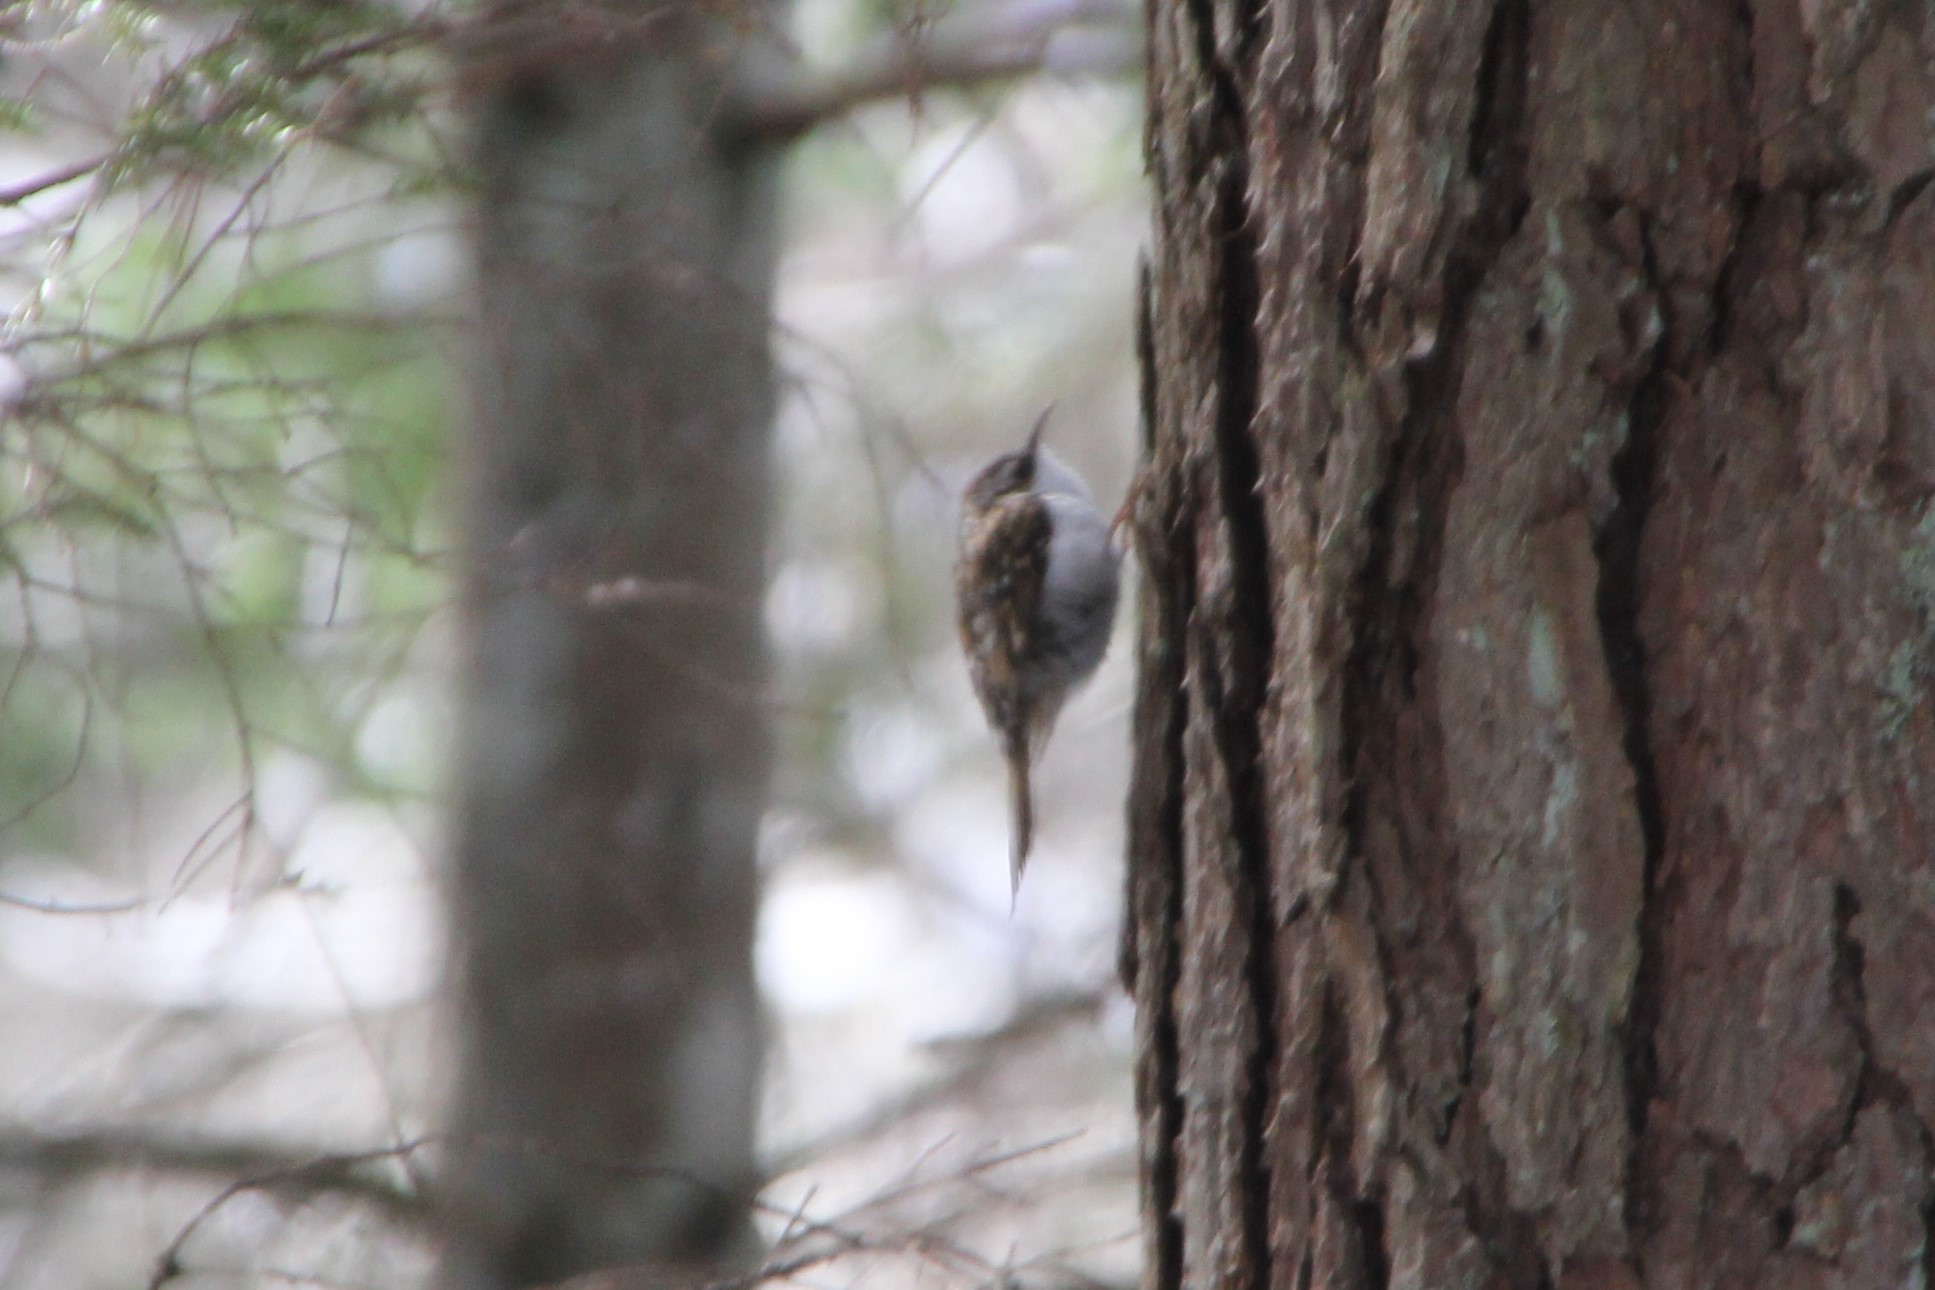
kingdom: Animalia
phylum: Chordata
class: Aves
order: Passeriformes
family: Certhiidae
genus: Certhia
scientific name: Certhia familiaris
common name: Eurasian treecreeper
